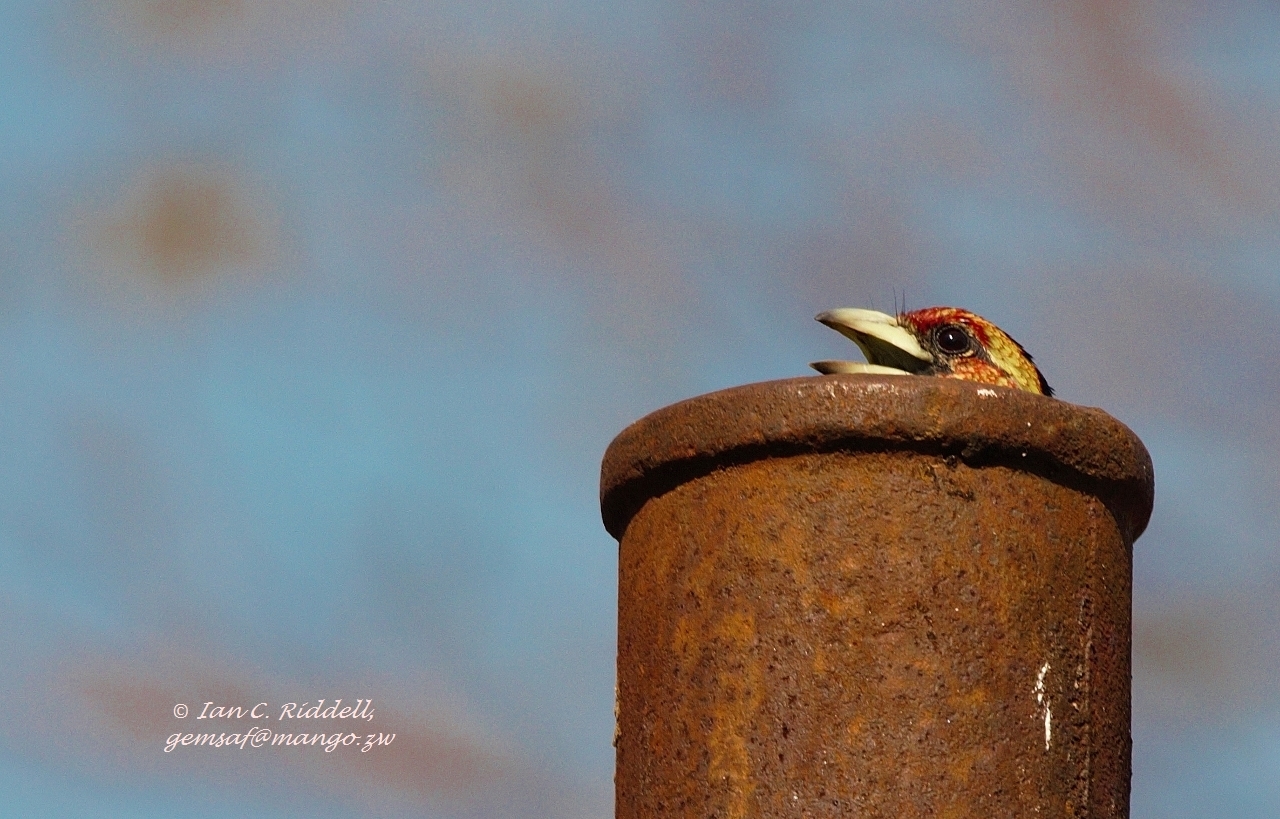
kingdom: Animalia
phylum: Chordata
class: Aves
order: Piciformes
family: Lybiidae
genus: Trachyphonus
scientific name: Trachyphonus vaillantii
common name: Crested barbet
